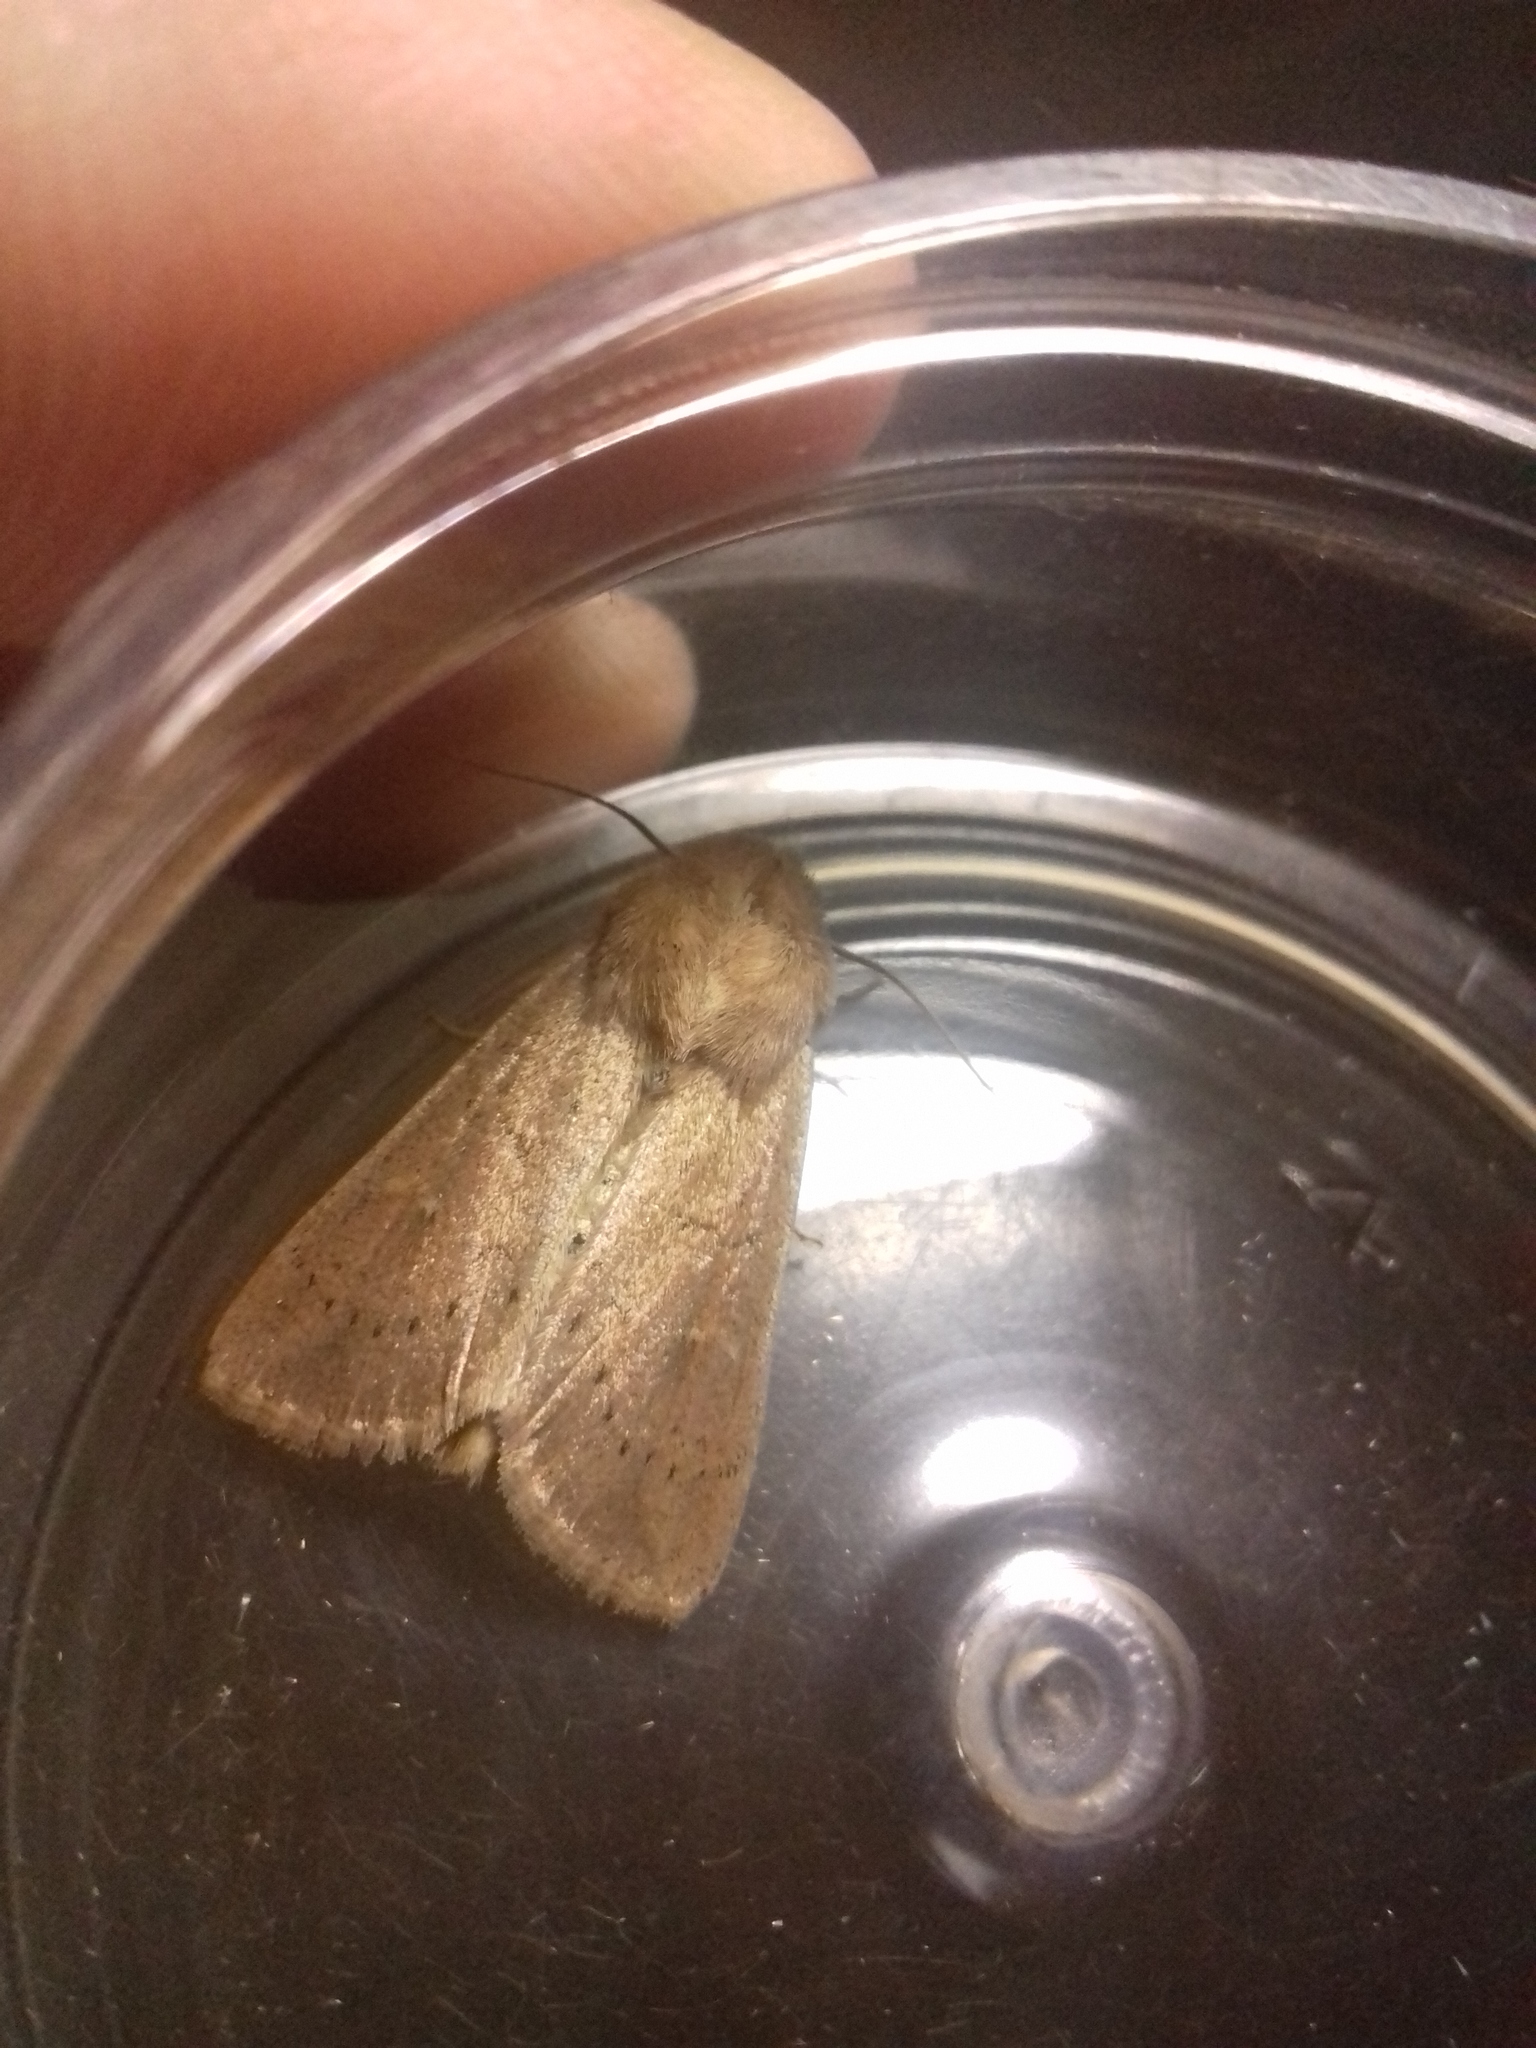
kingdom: Animalia
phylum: Arthropoda
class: Insecta
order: Lepidoptera
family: Noctuidae
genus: Mythimna
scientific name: Mythimna ferrago
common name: Clay
